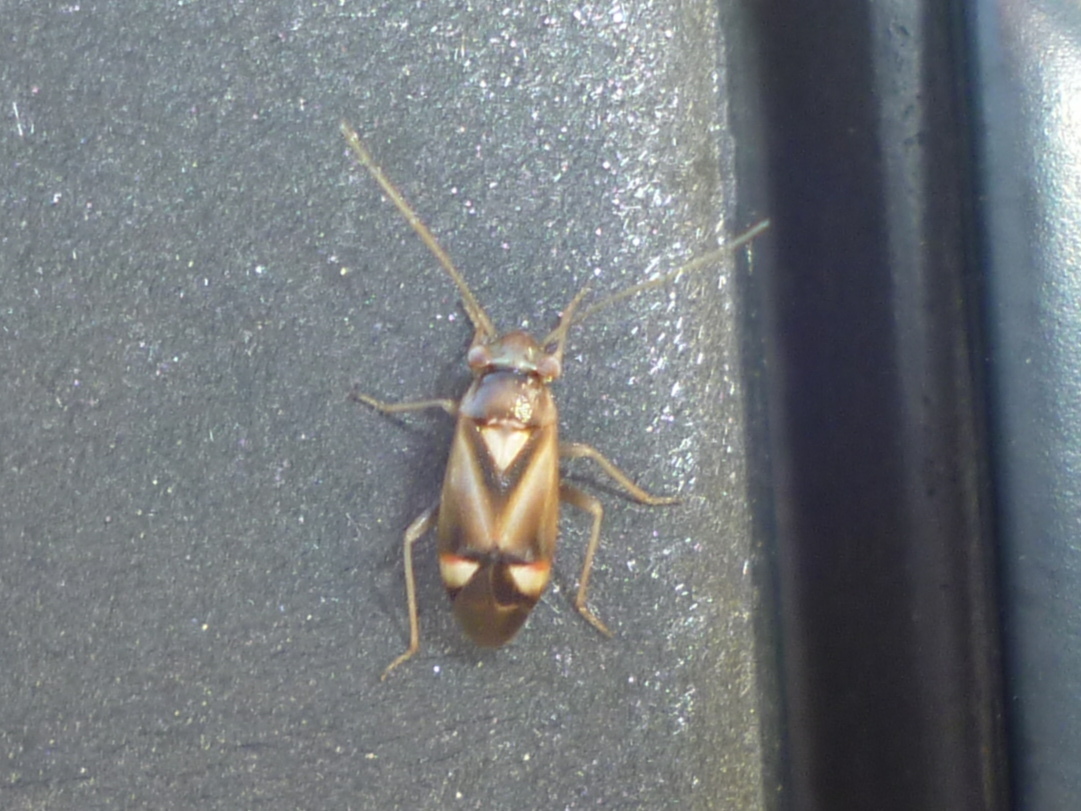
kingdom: Animalia
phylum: Arthropoda
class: Insecta
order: Hemiptera
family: Miridae
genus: Bolteria
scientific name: Bolteria luteifrons
